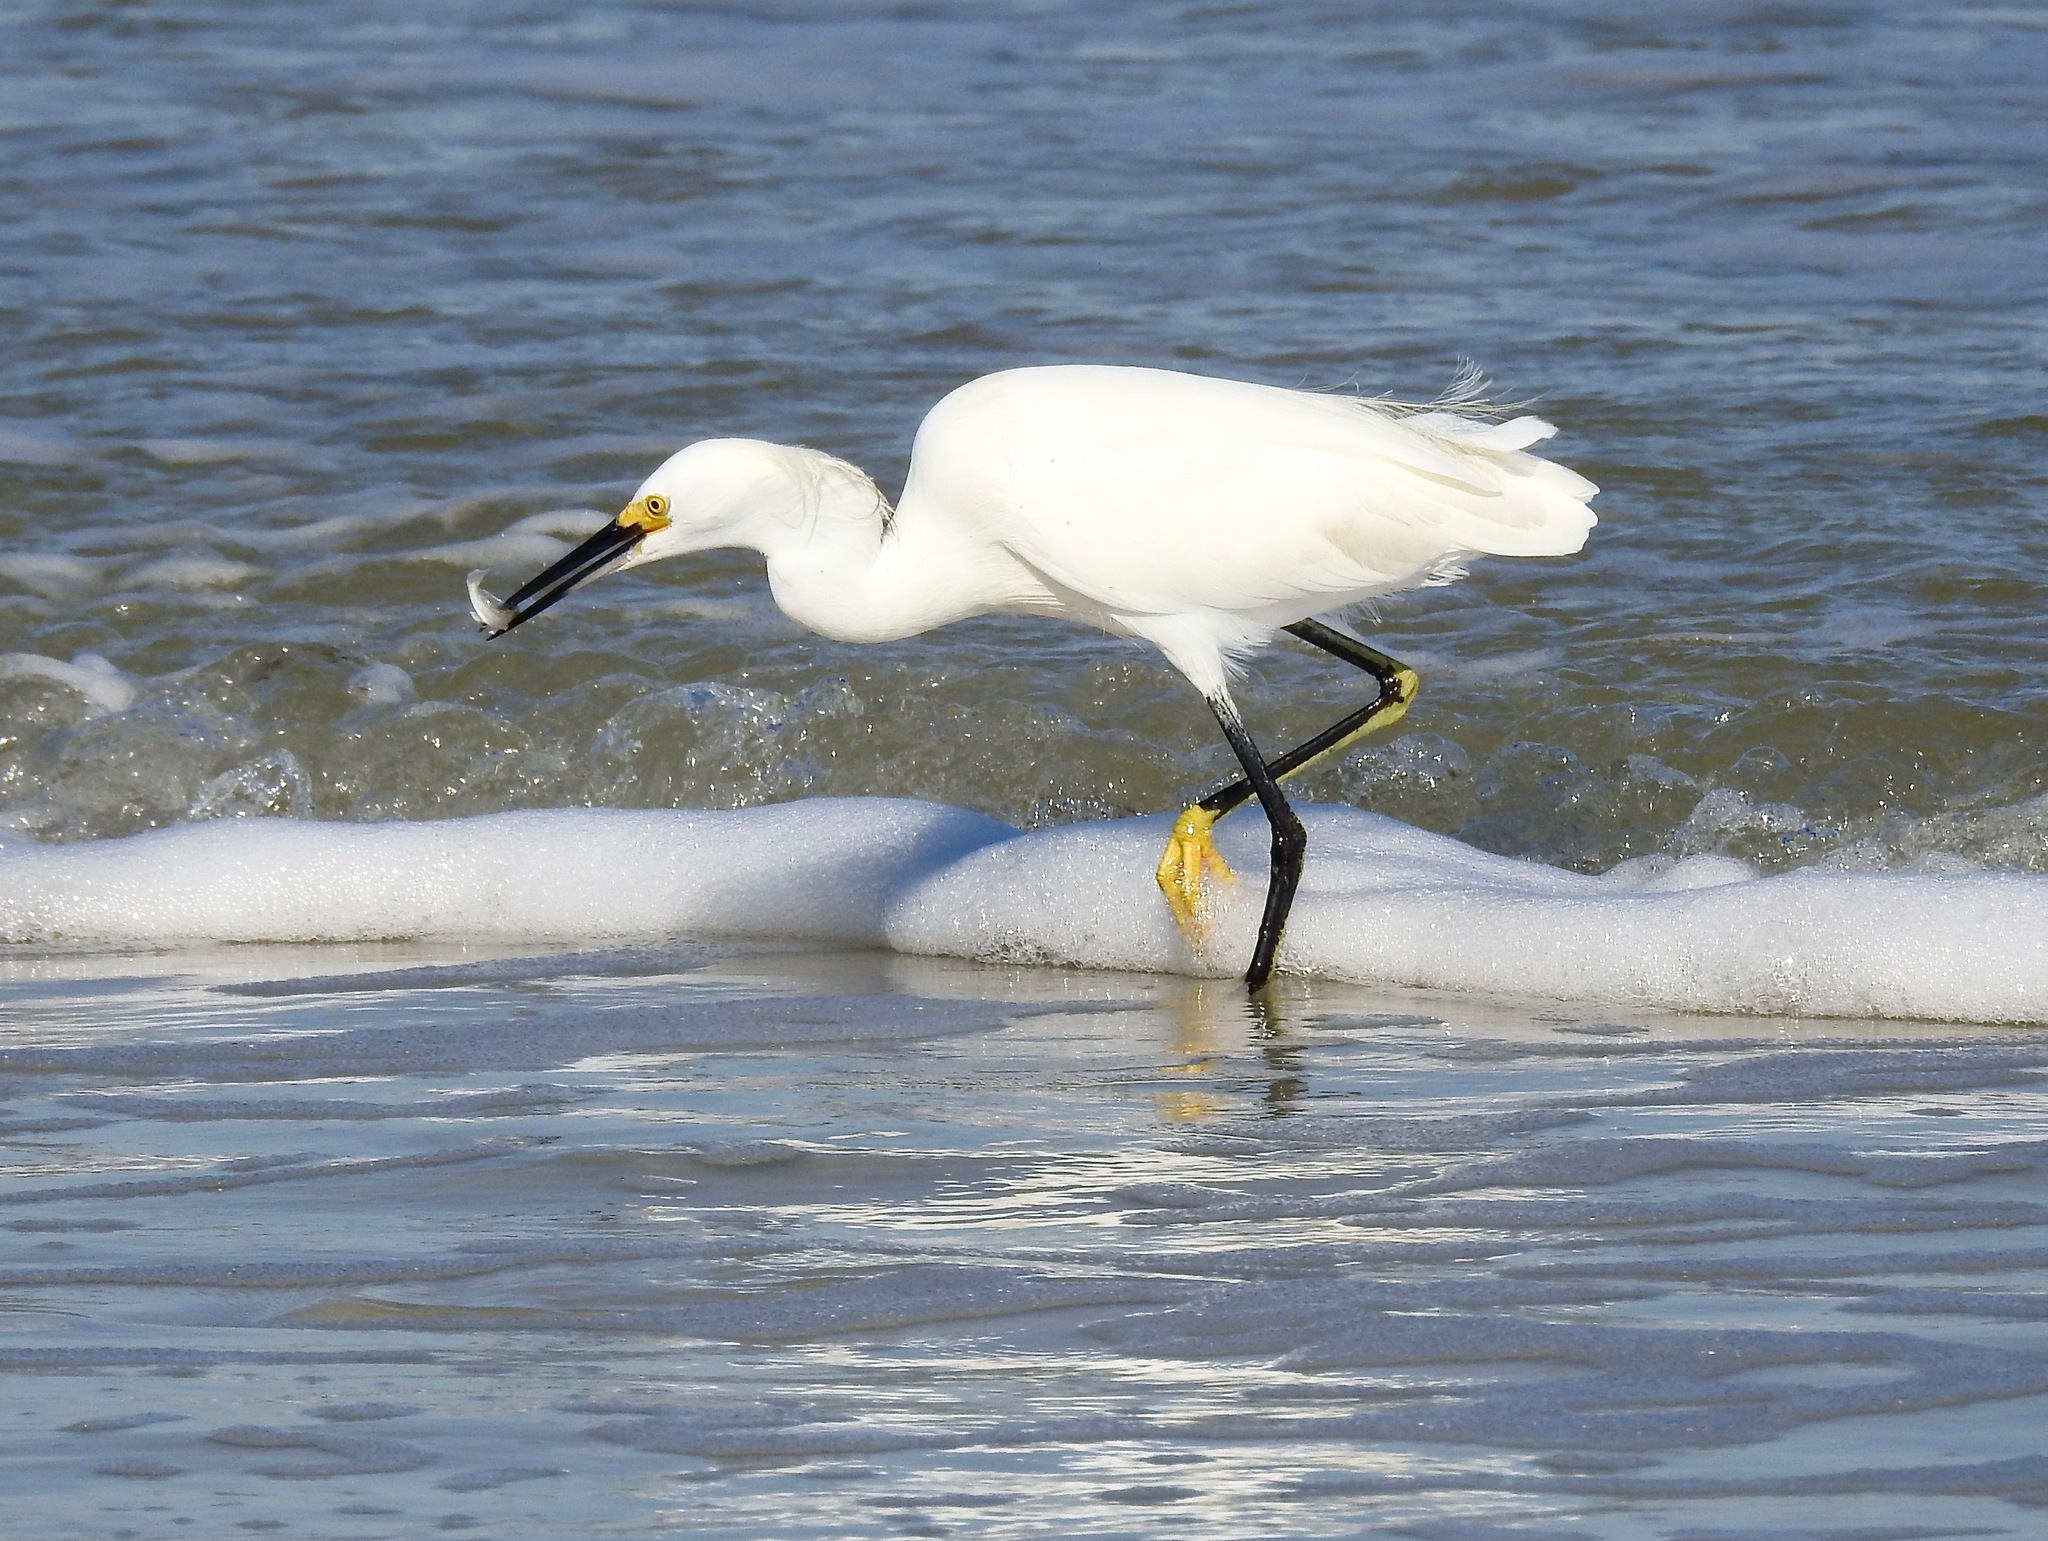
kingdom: Animalia
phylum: Chordata
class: Aves
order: Pelecaniformes
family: Ardeidae
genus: Egretta
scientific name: Egretta thula
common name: Snowy egret
